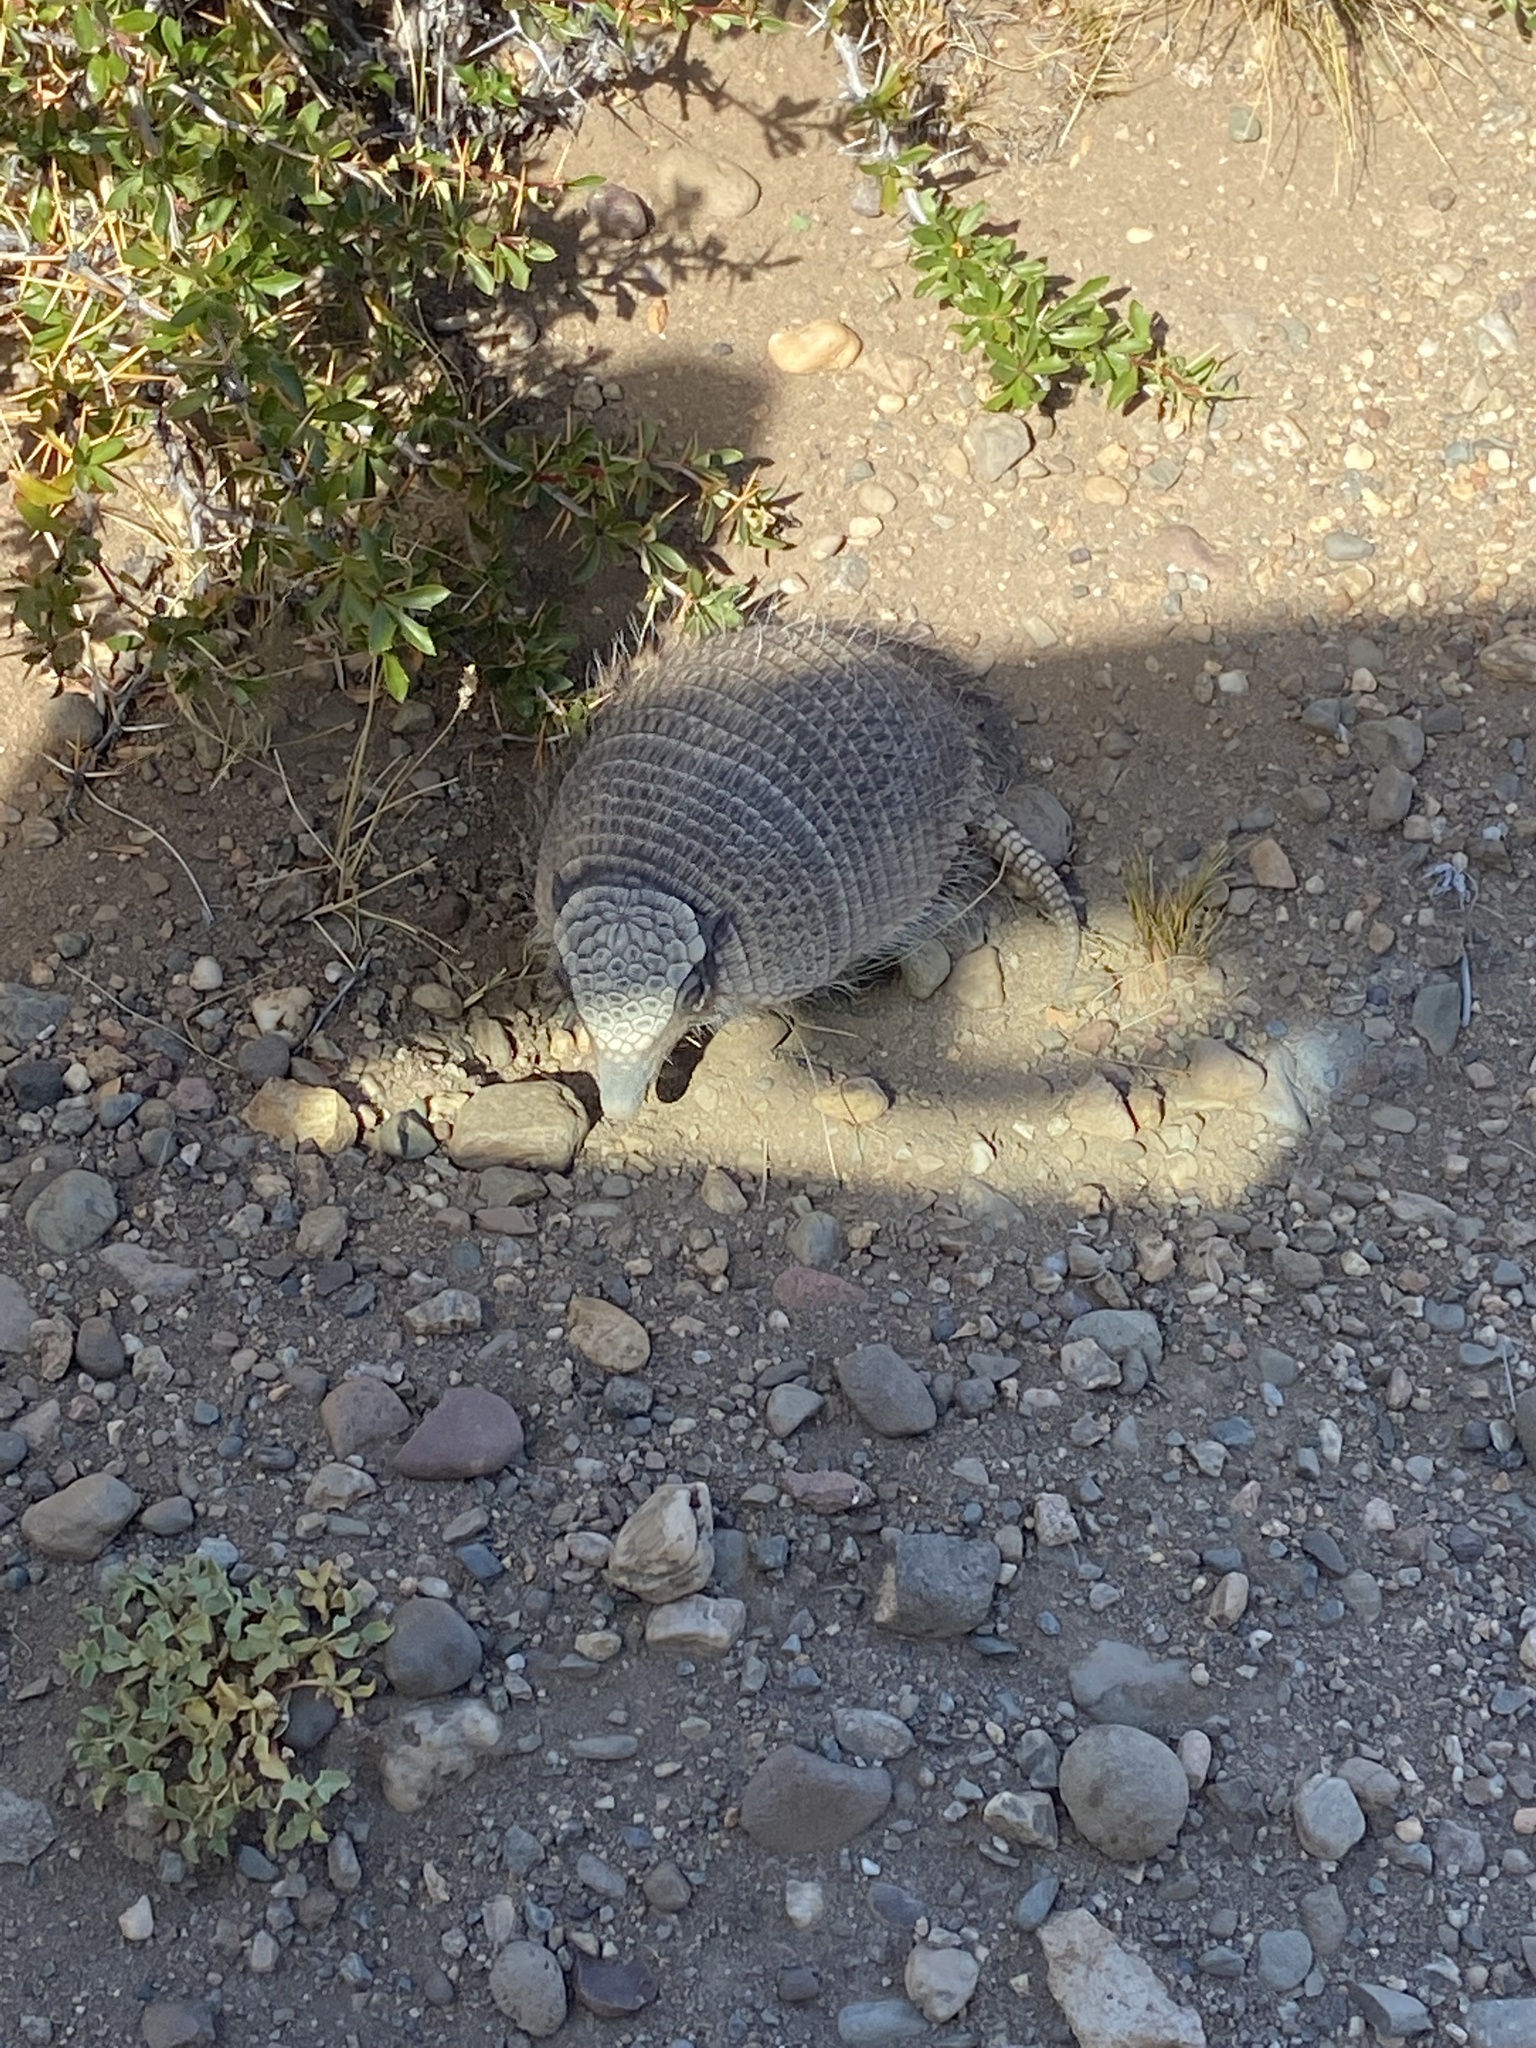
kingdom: Animalia
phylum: Chordata
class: Mammalia
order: Cingulata
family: Dasypodidae
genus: Zaedyus
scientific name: Zaedyus pichiy
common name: Pichi
